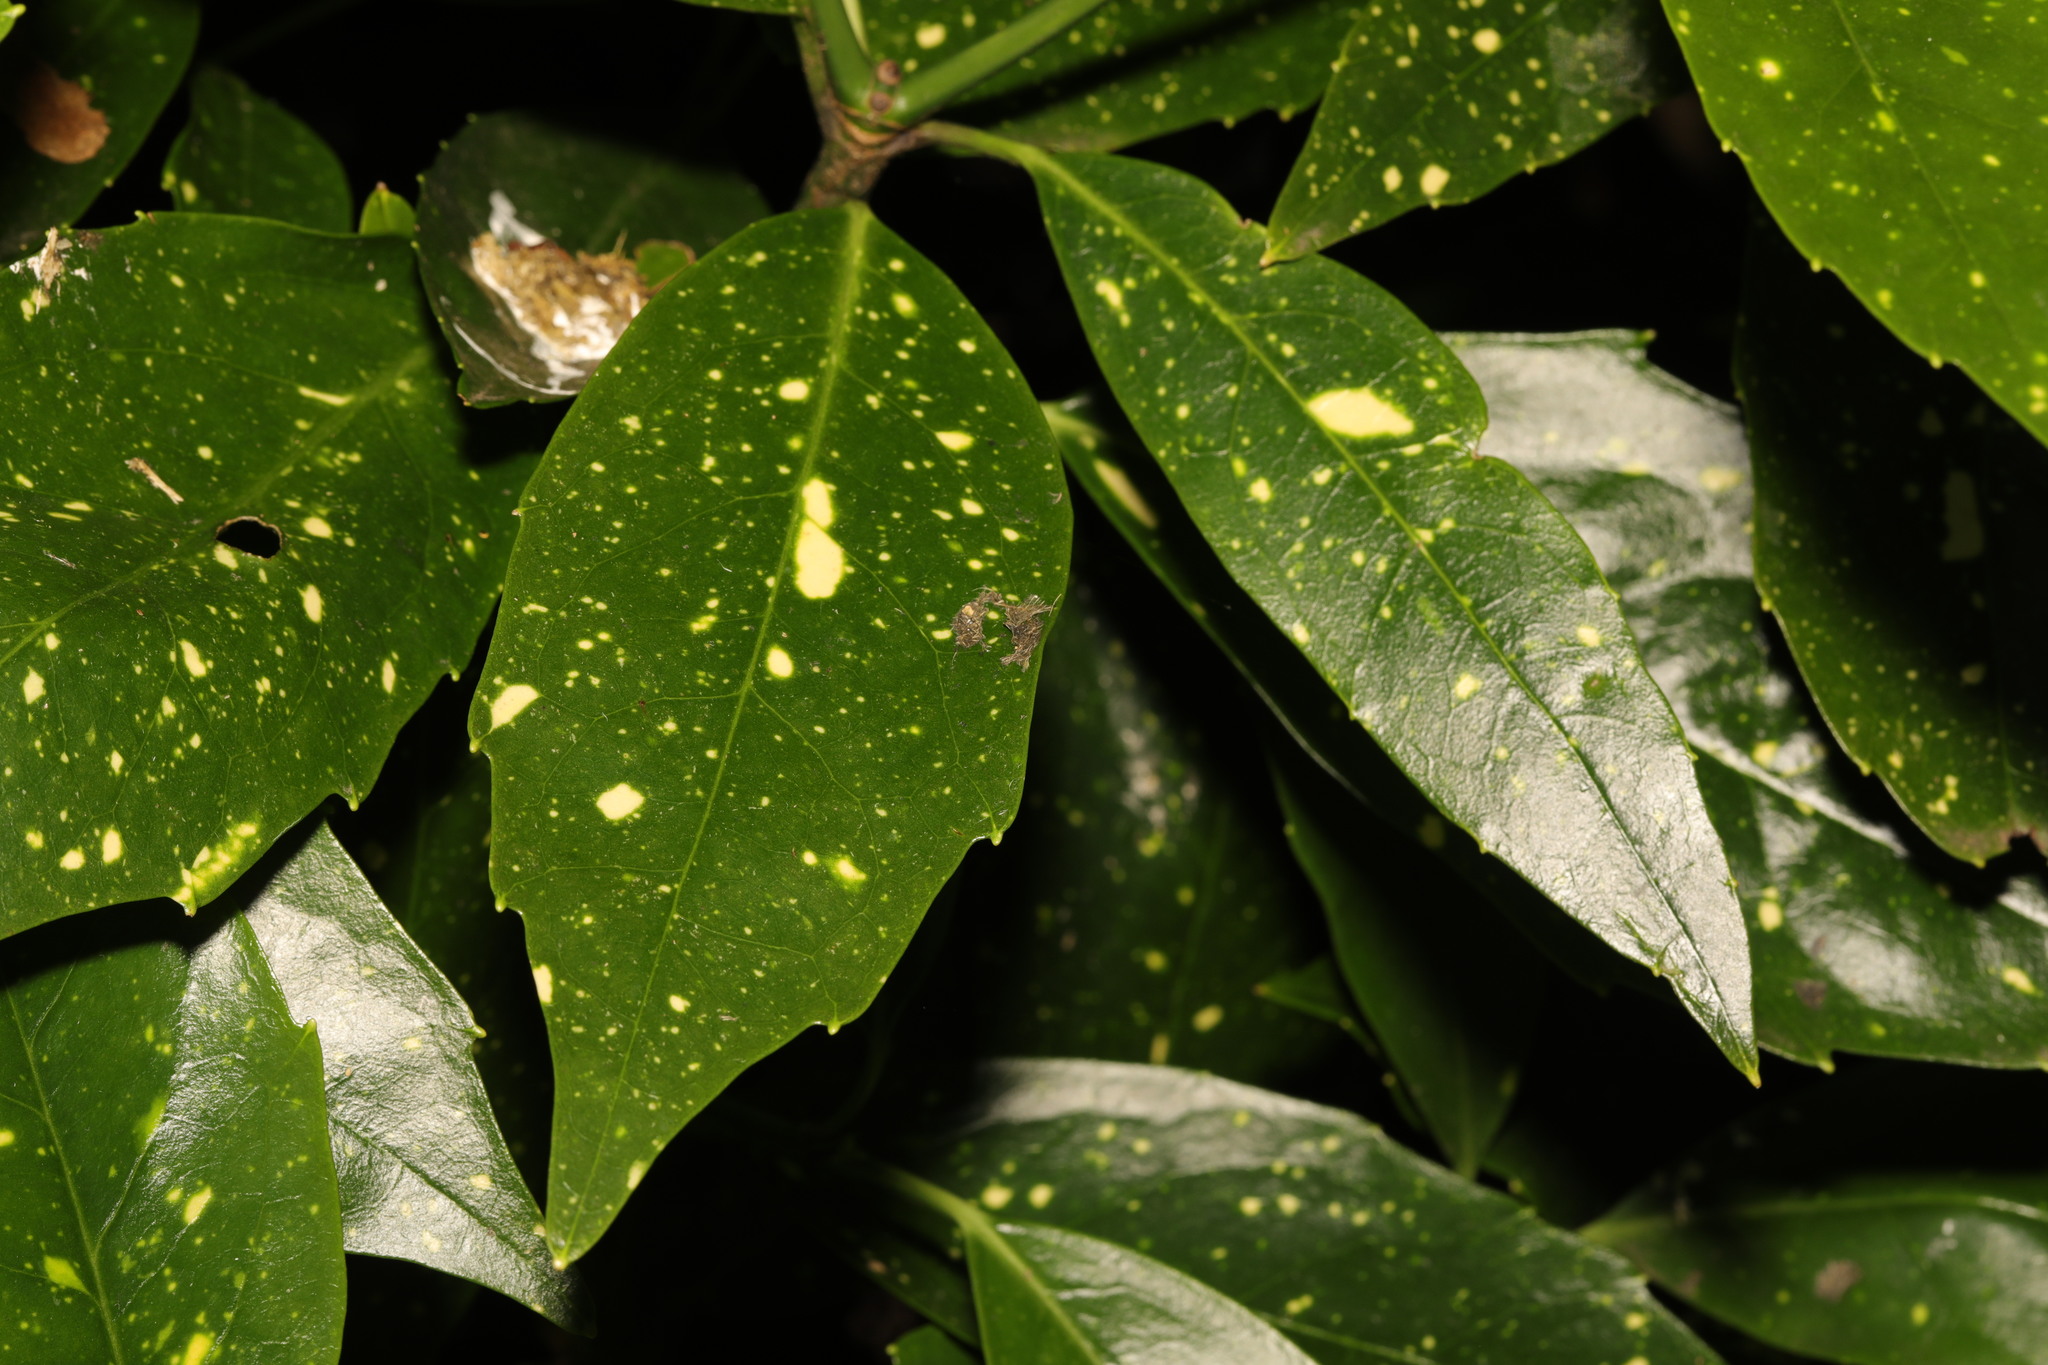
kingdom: Plantae
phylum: Tracheophyta
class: Magnoliopsida
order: Garryales
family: Garryaceae
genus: Aucuba
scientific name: Aucuba japonica
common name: Spotted-laurel
